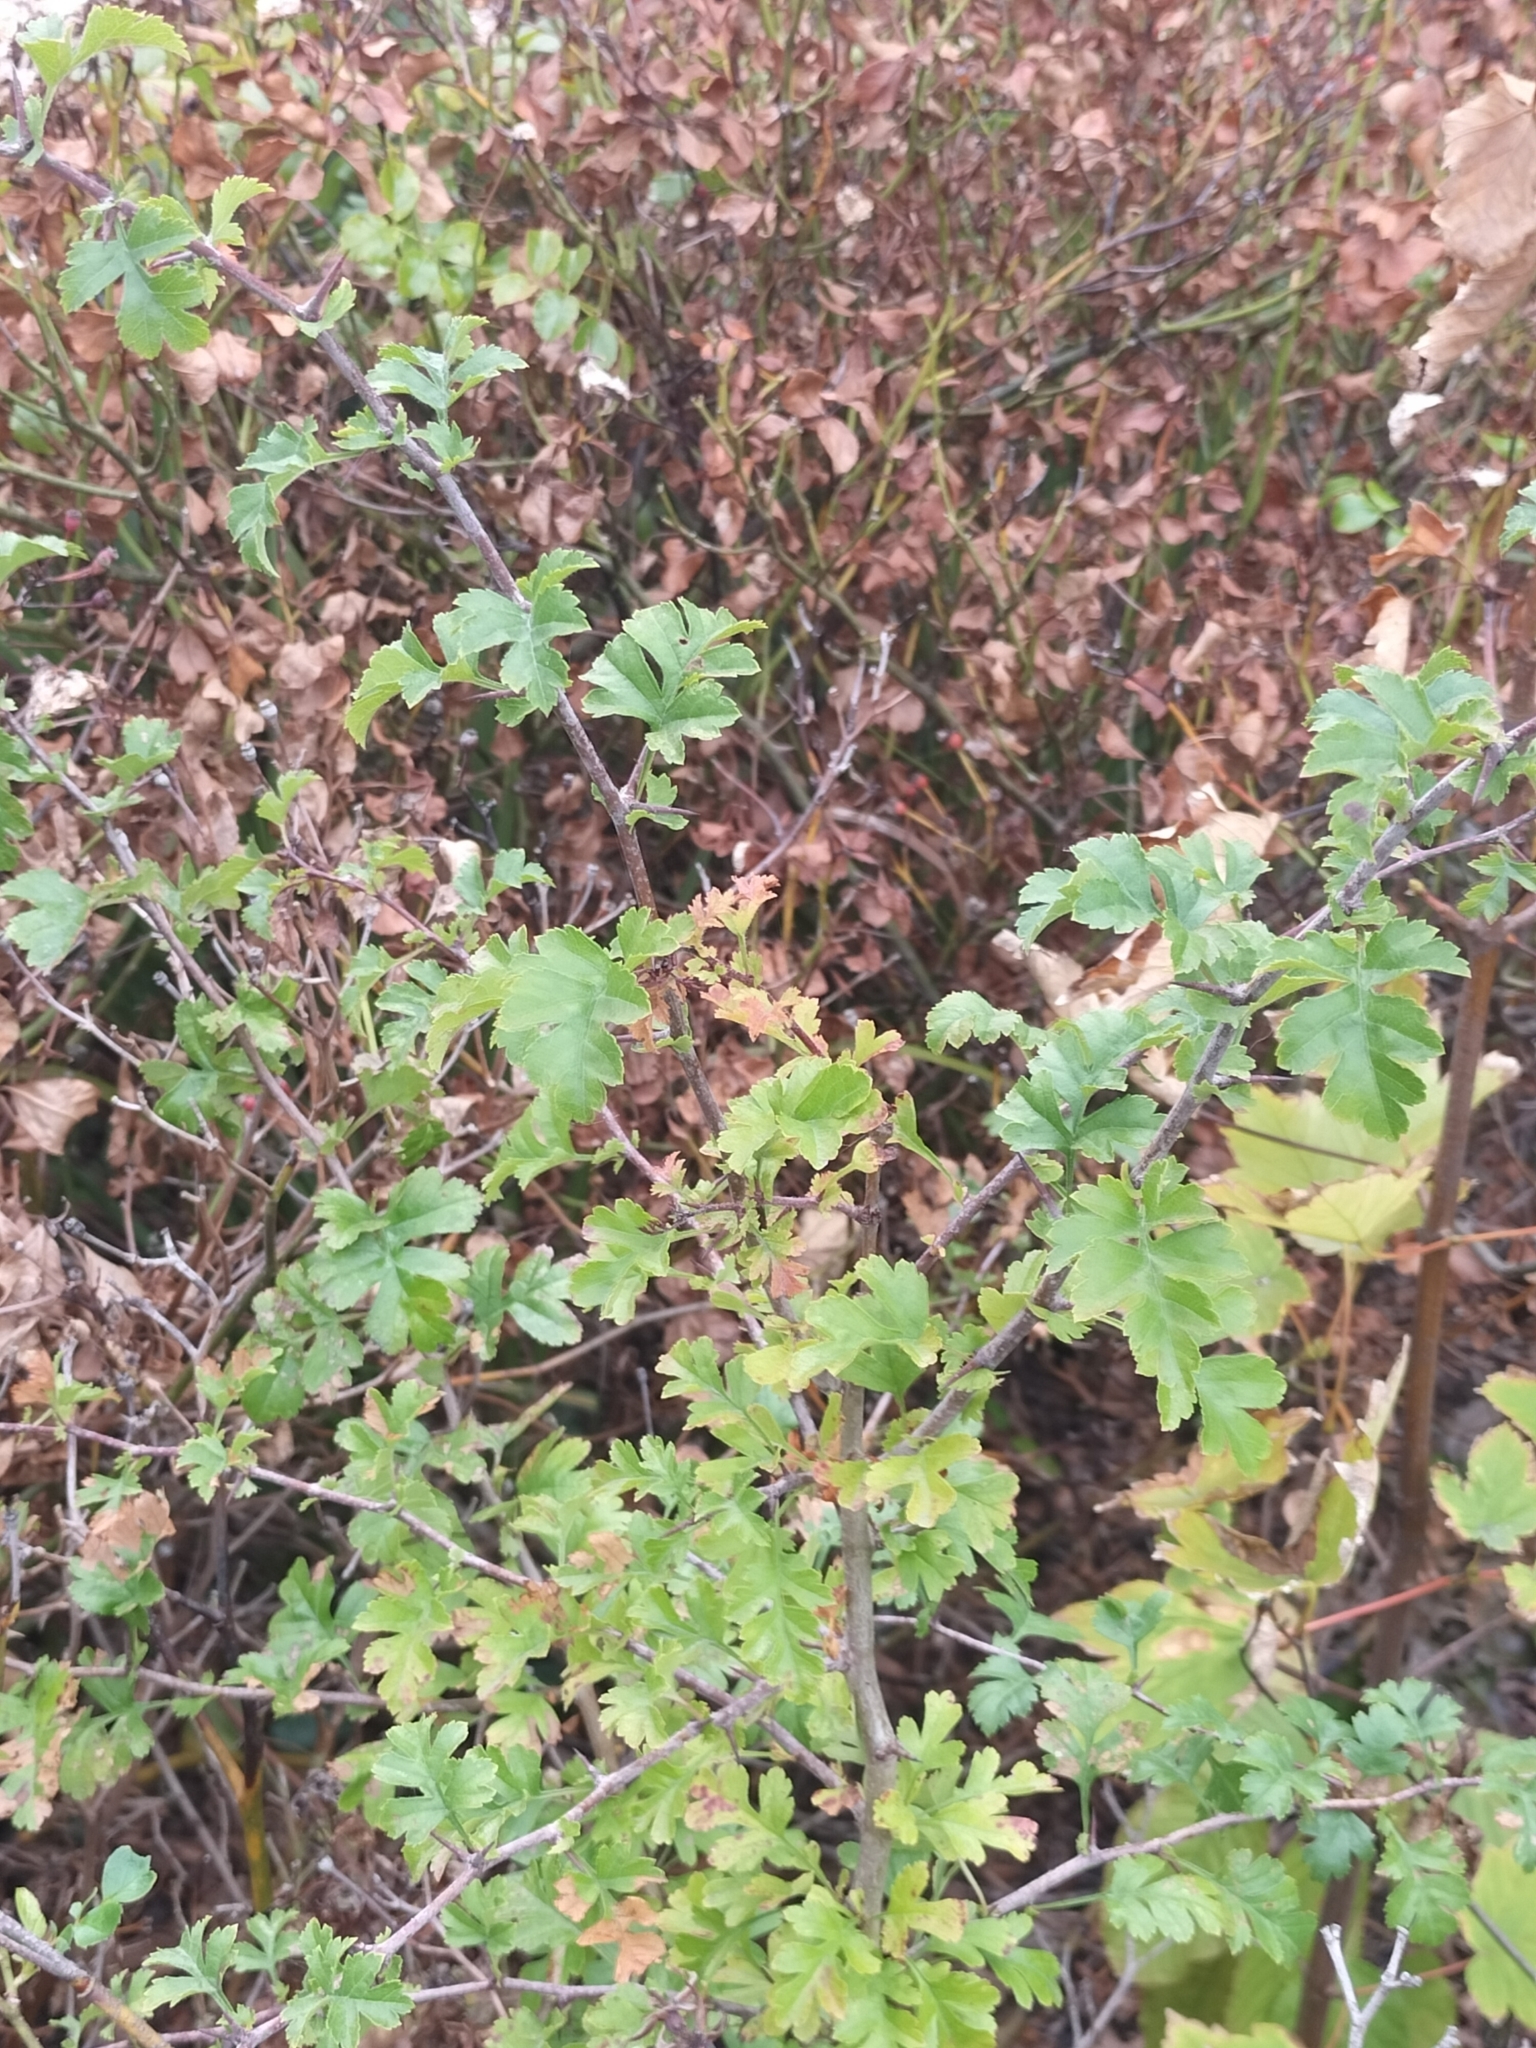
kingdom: Plantae
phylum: Tracheophyta
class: Magnoliopsida
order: Rosales
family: Rosaceae
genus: Crataegus
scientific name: Crataegus monogyna
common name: Hawthorn
